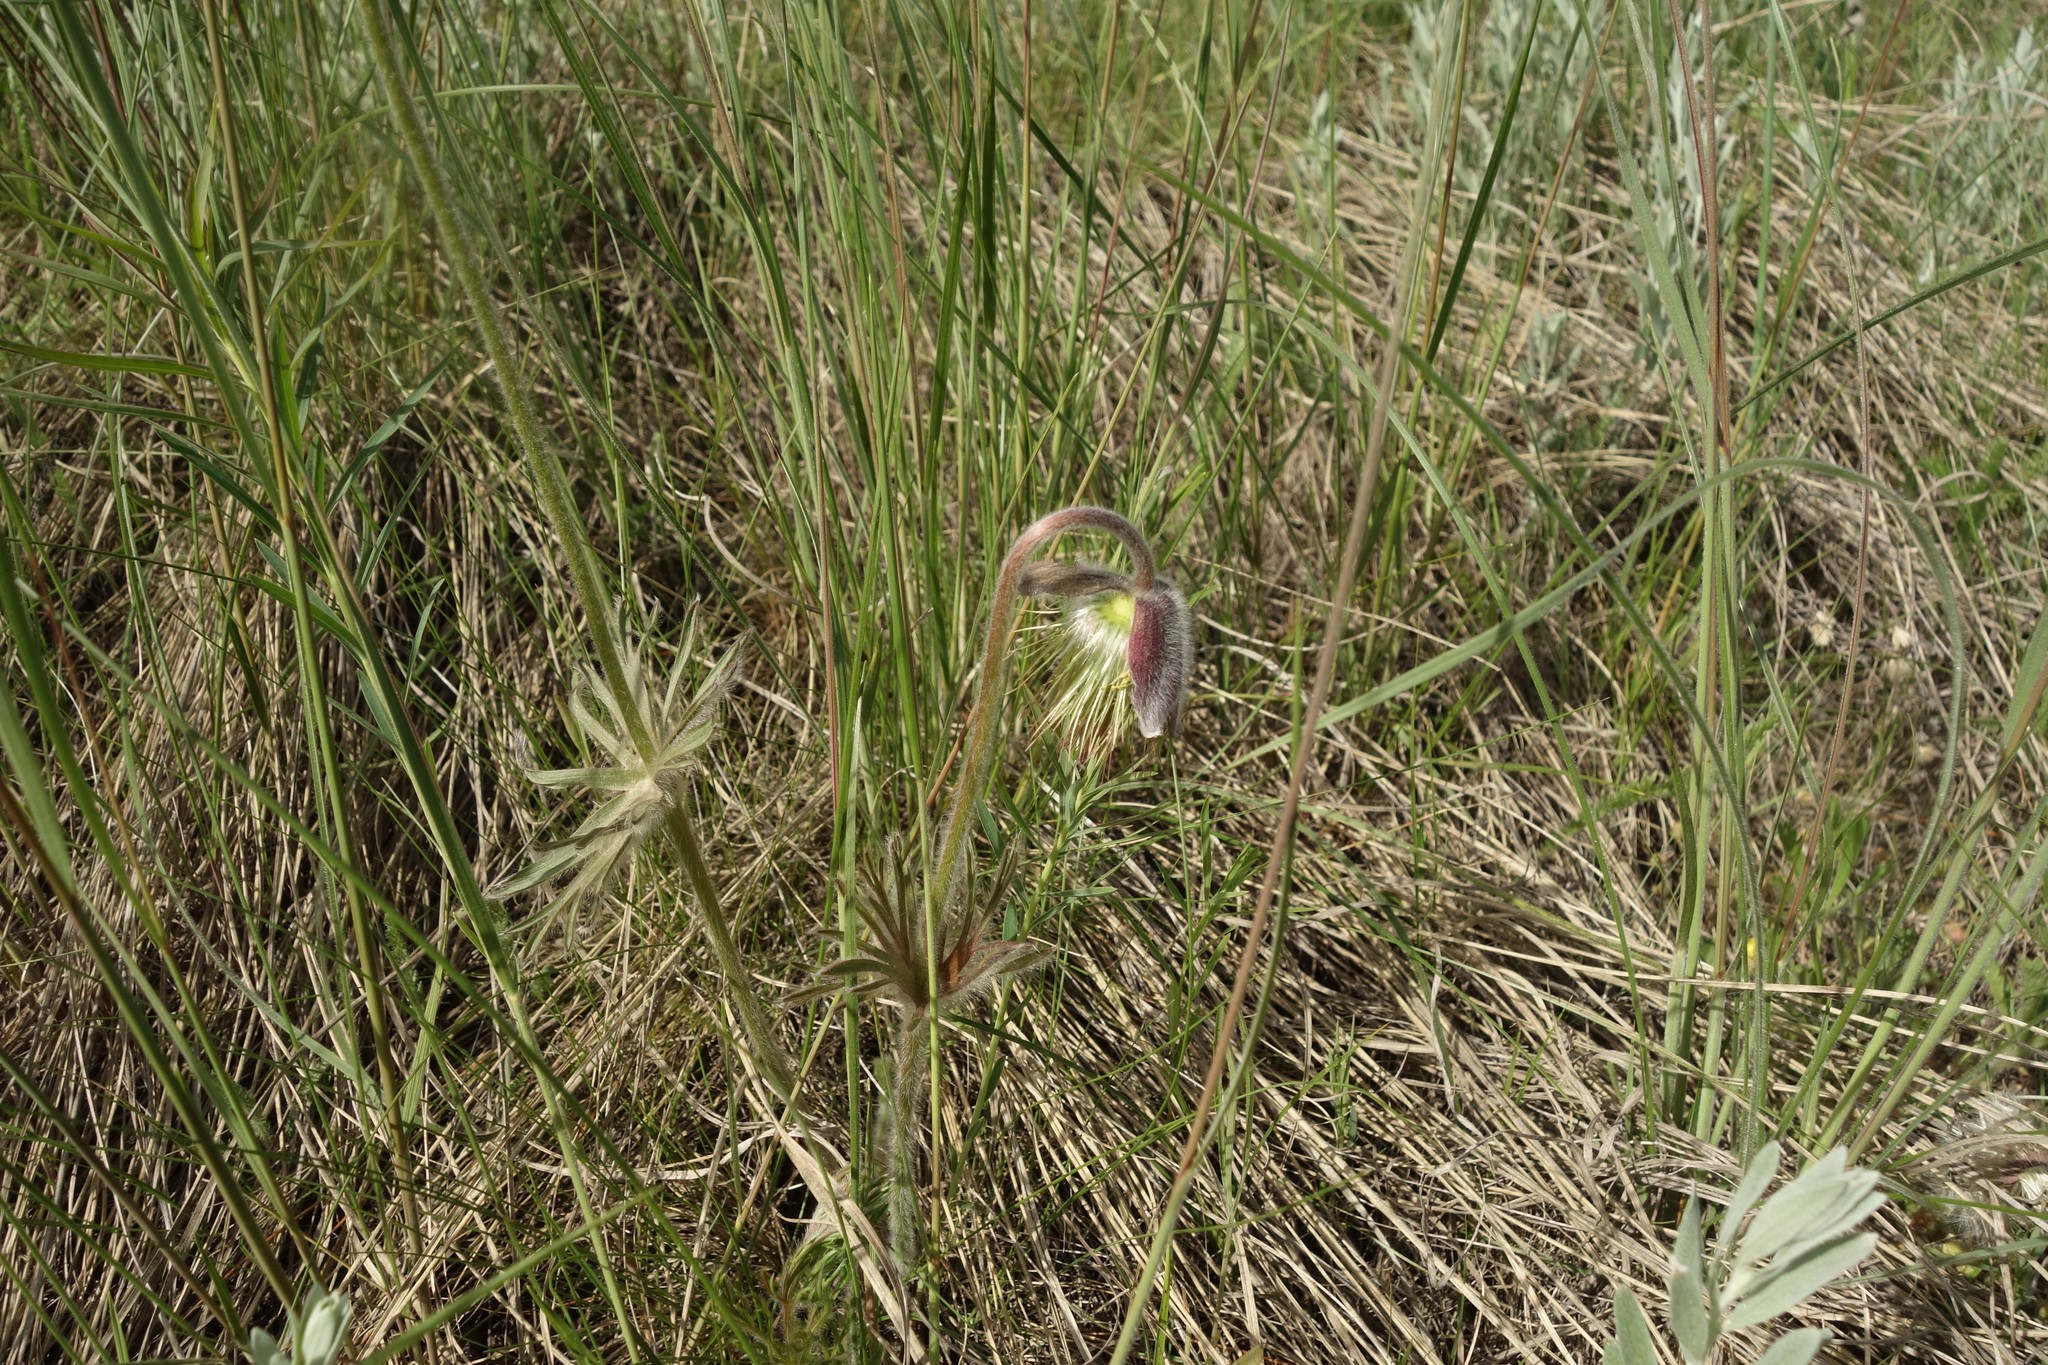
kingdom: Plantae
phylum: Tracheophyta
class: Magnoliopsida
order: Ranunculales
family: Ranunculaceae
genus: Pulsatilla
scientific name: Pulsatilla pratensis
